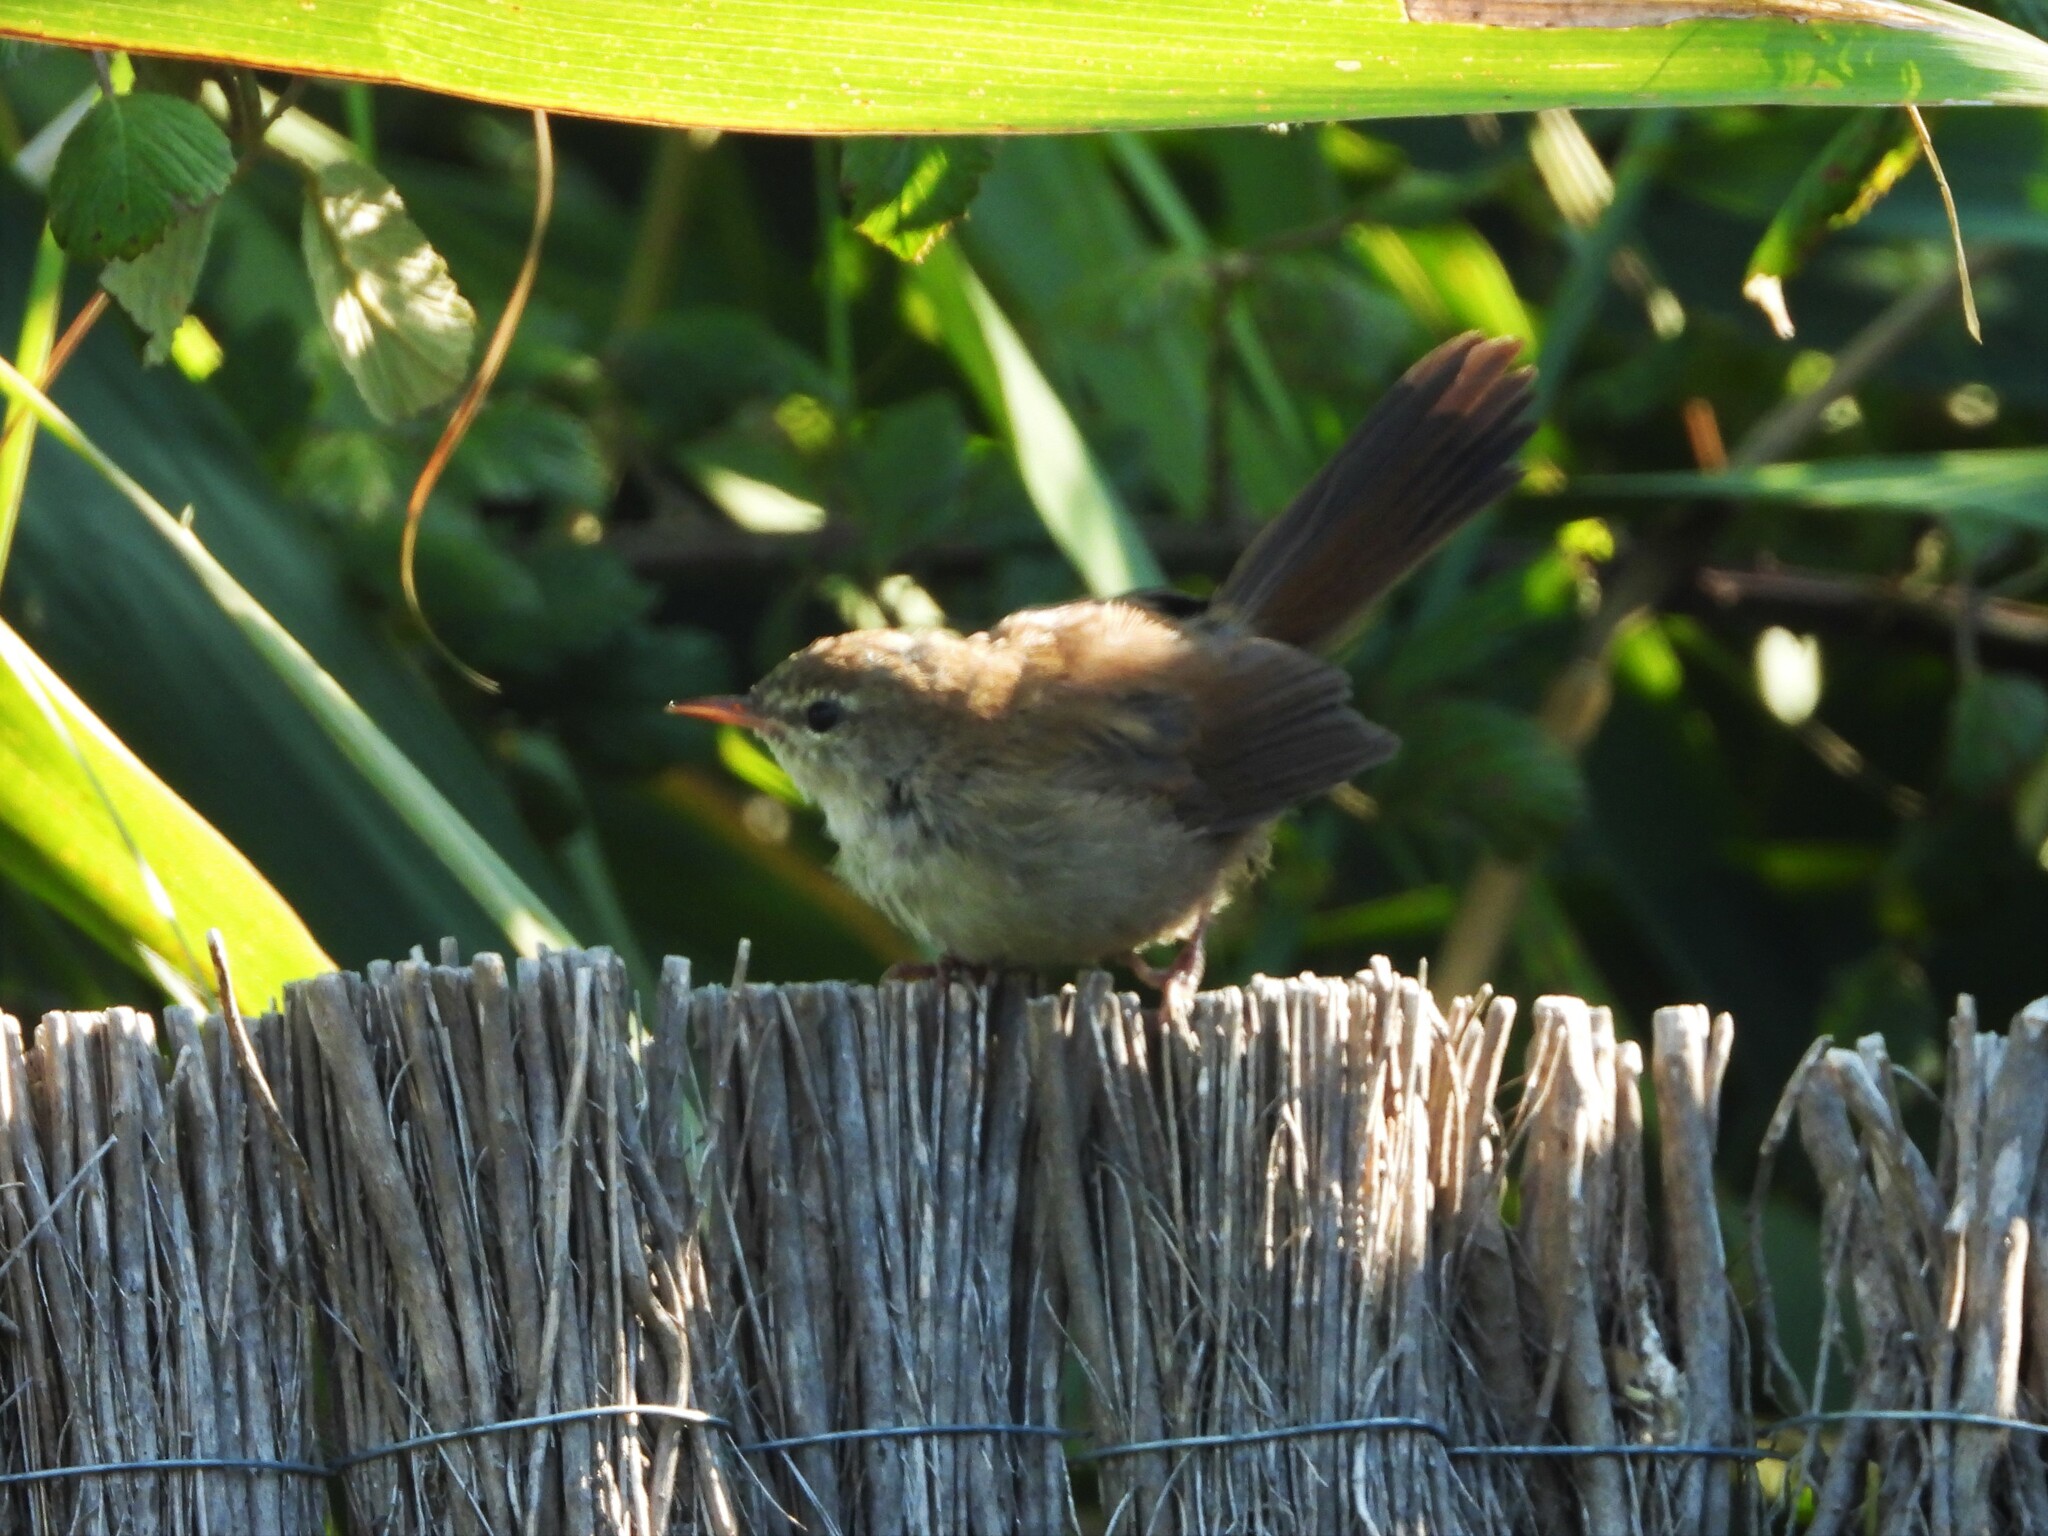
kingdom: Animalia
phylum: Chordata
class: Aves
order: Passeriformes
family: Cettiidae
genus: Cettia
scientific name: Cettia cetti
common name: Cetti's warbler
